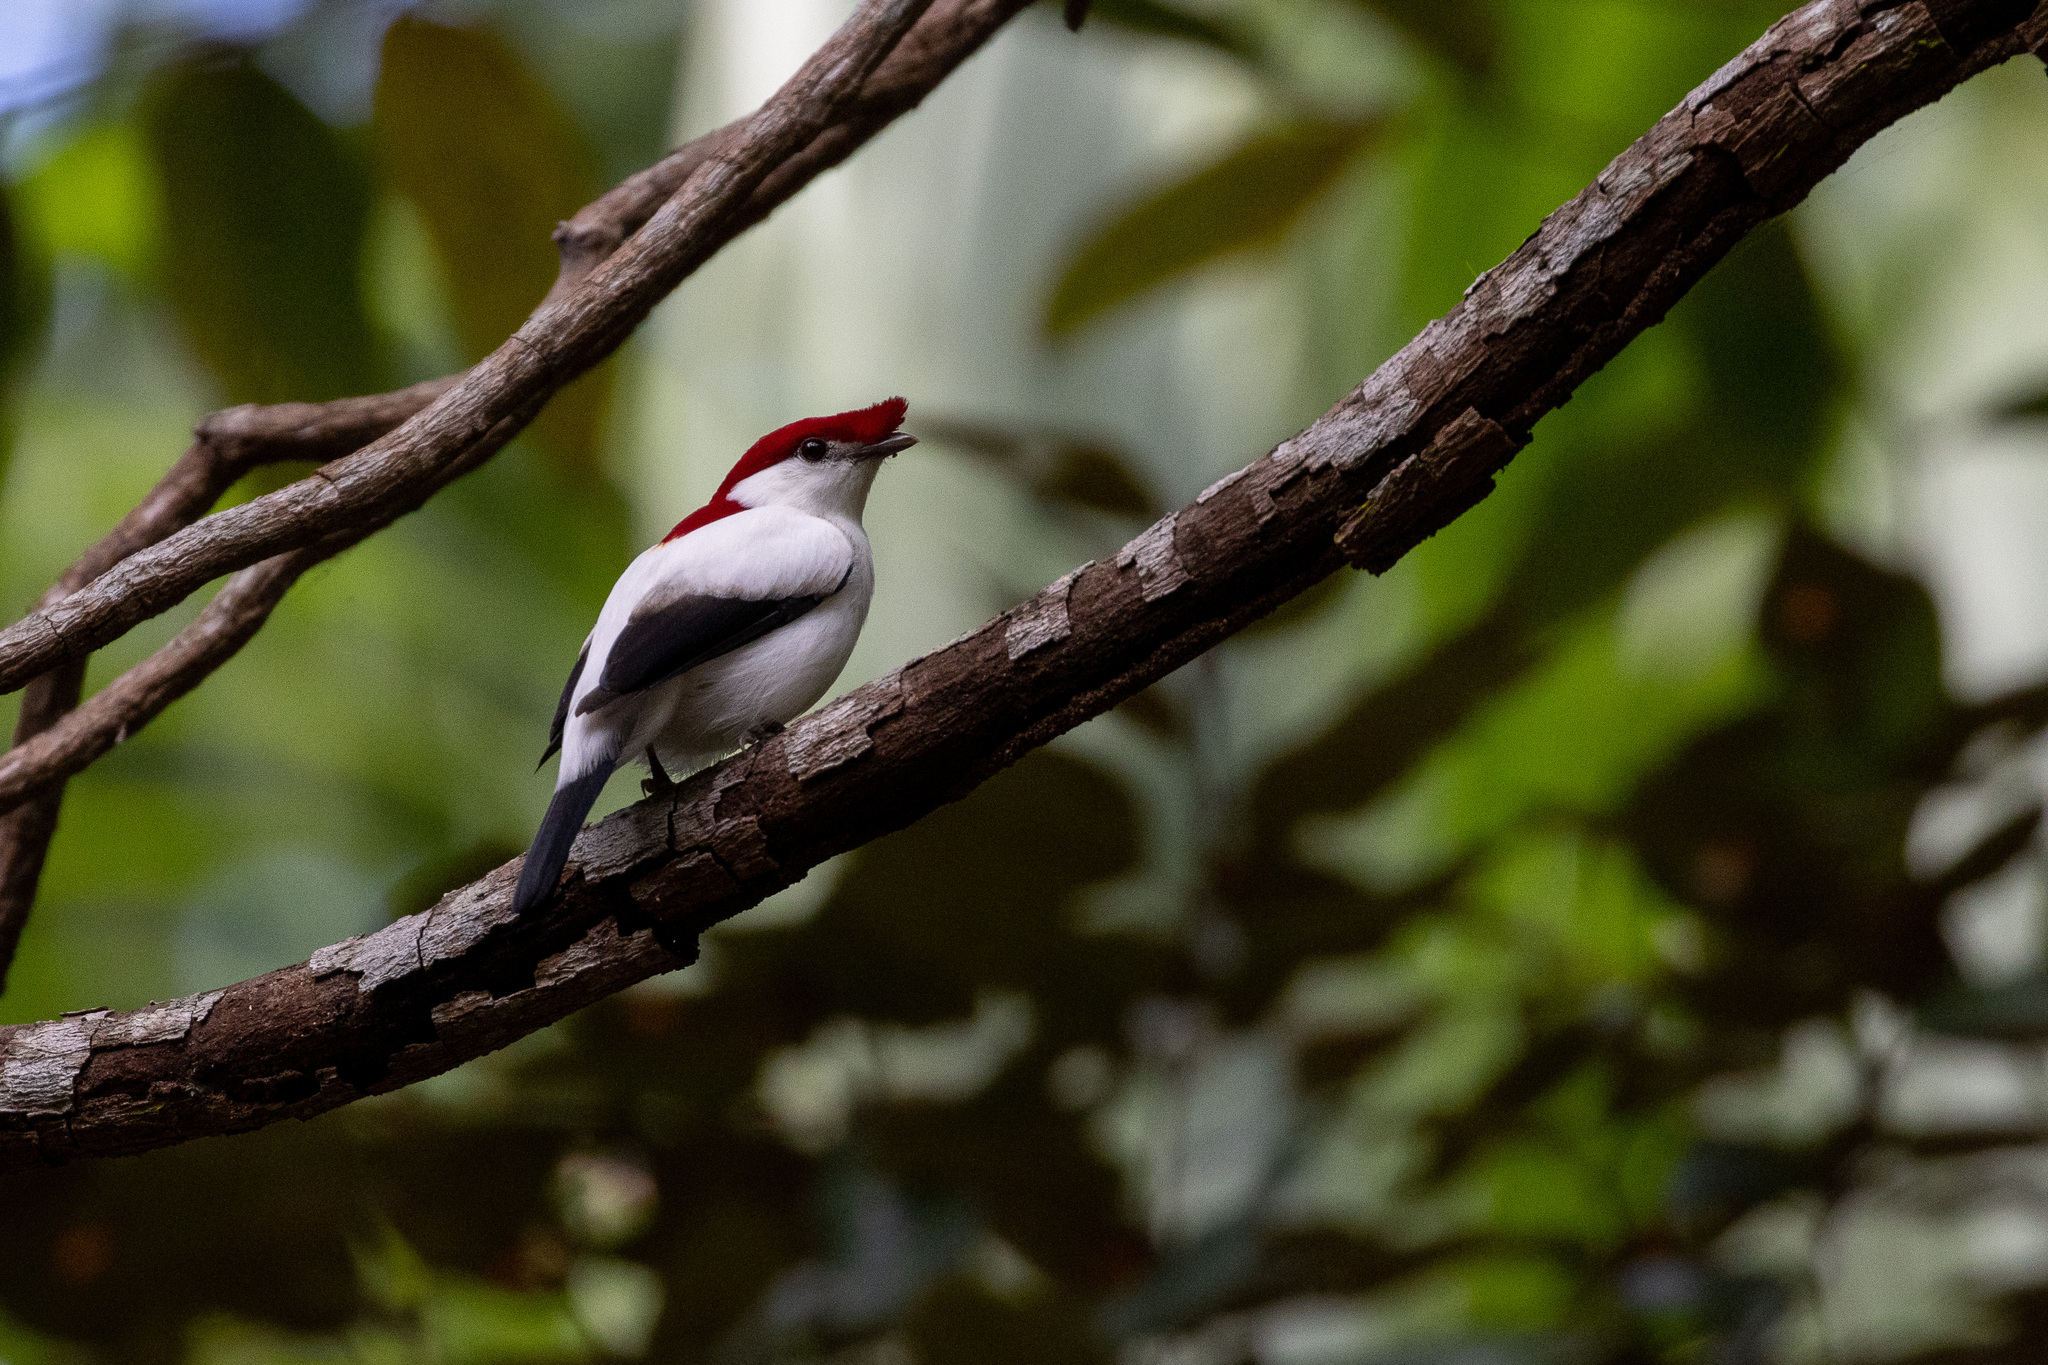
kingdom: Animalia
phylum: Chordata
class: Aves
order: Passeriformes
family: Pipridae
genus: Antilophia
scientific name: Antilophia bokermanni
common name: Araripe manakin
